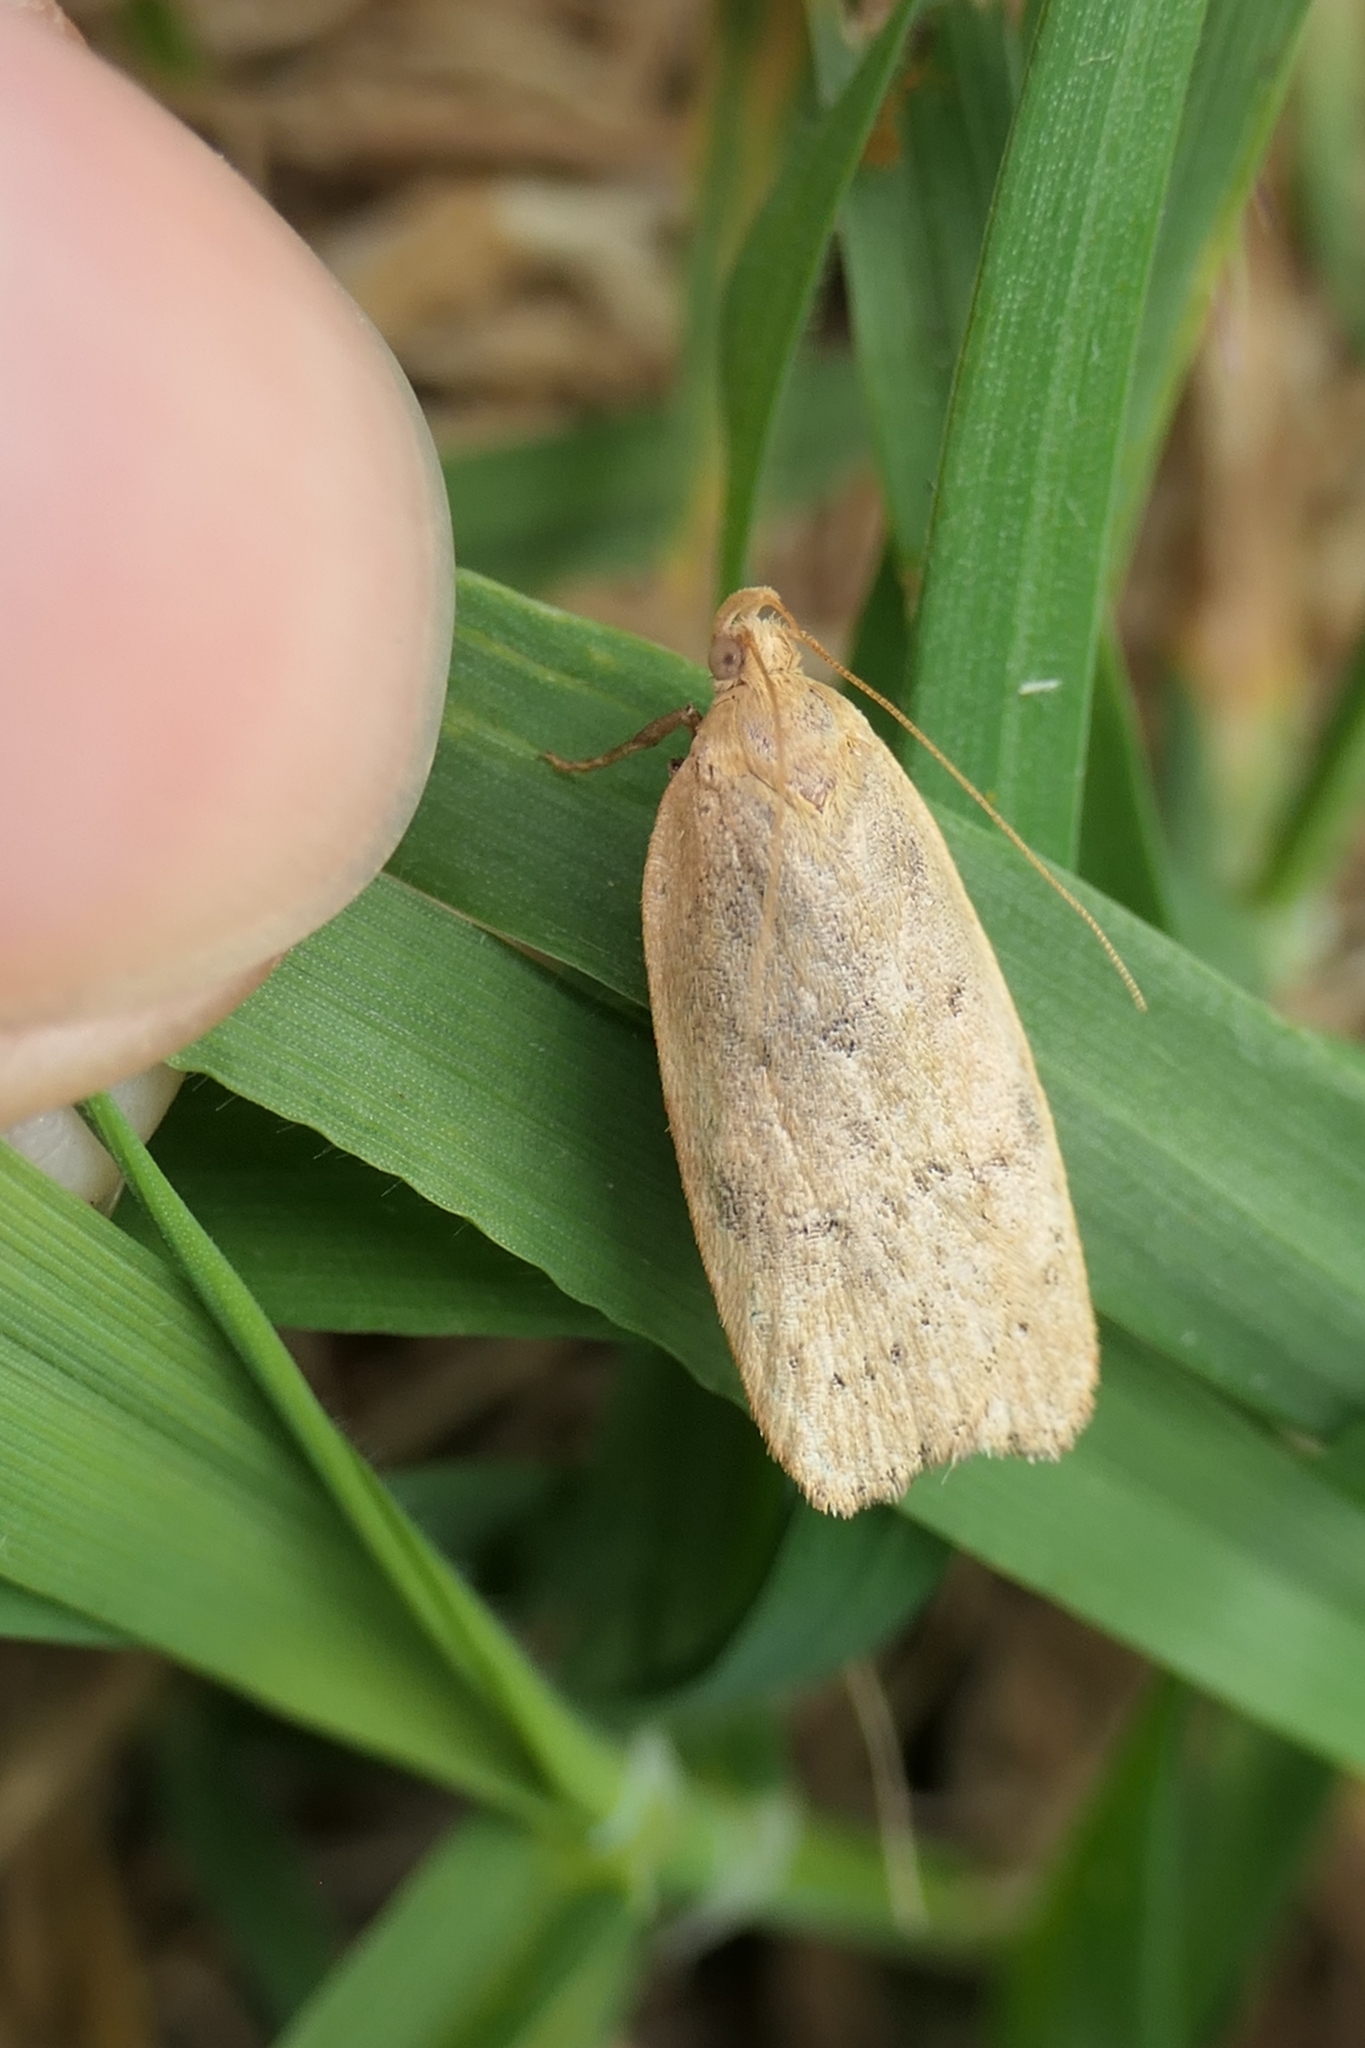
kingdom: Animalia
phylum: Arthropoda
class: Insecta
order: Lepidoptera
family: Depressariidae
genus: Phaeosaces
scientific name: Phaeosaces coarctatella
